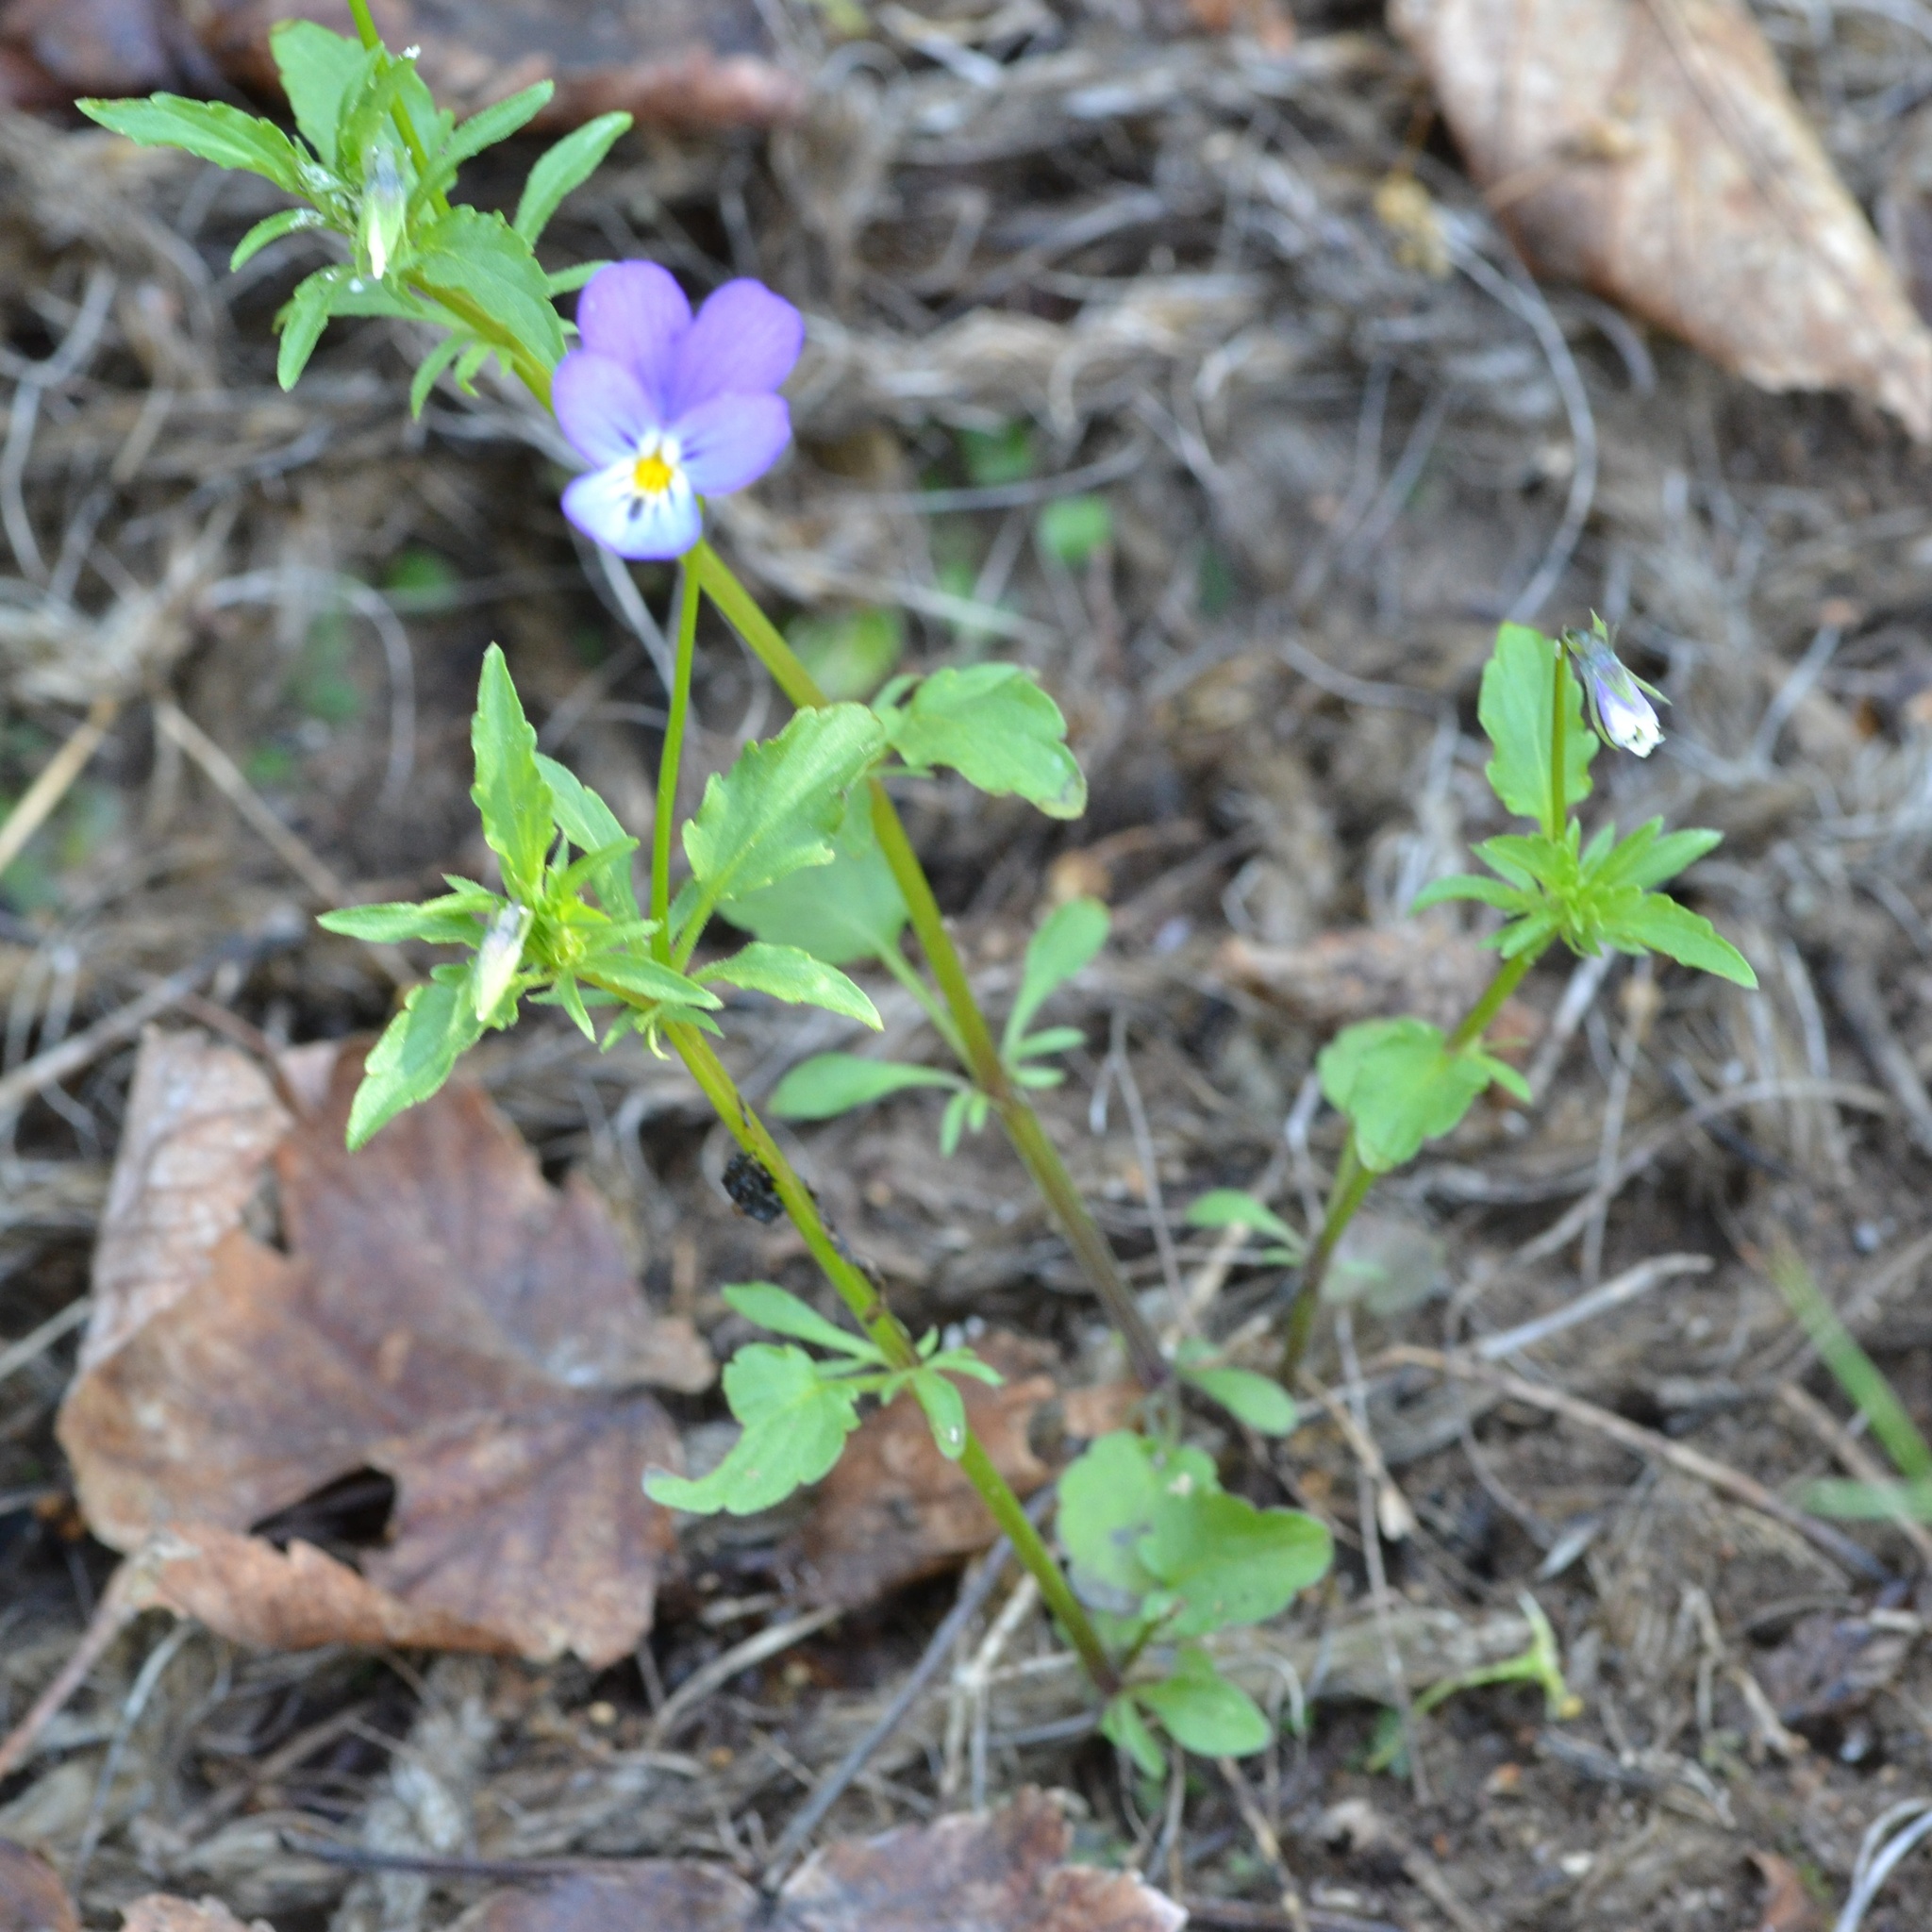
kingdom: Plantae
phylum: Tracheophyta
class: Magnoliopsida
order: Malpighiales
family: Violaceae
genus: Viola
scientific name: Viola tricolor
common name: Pansy
